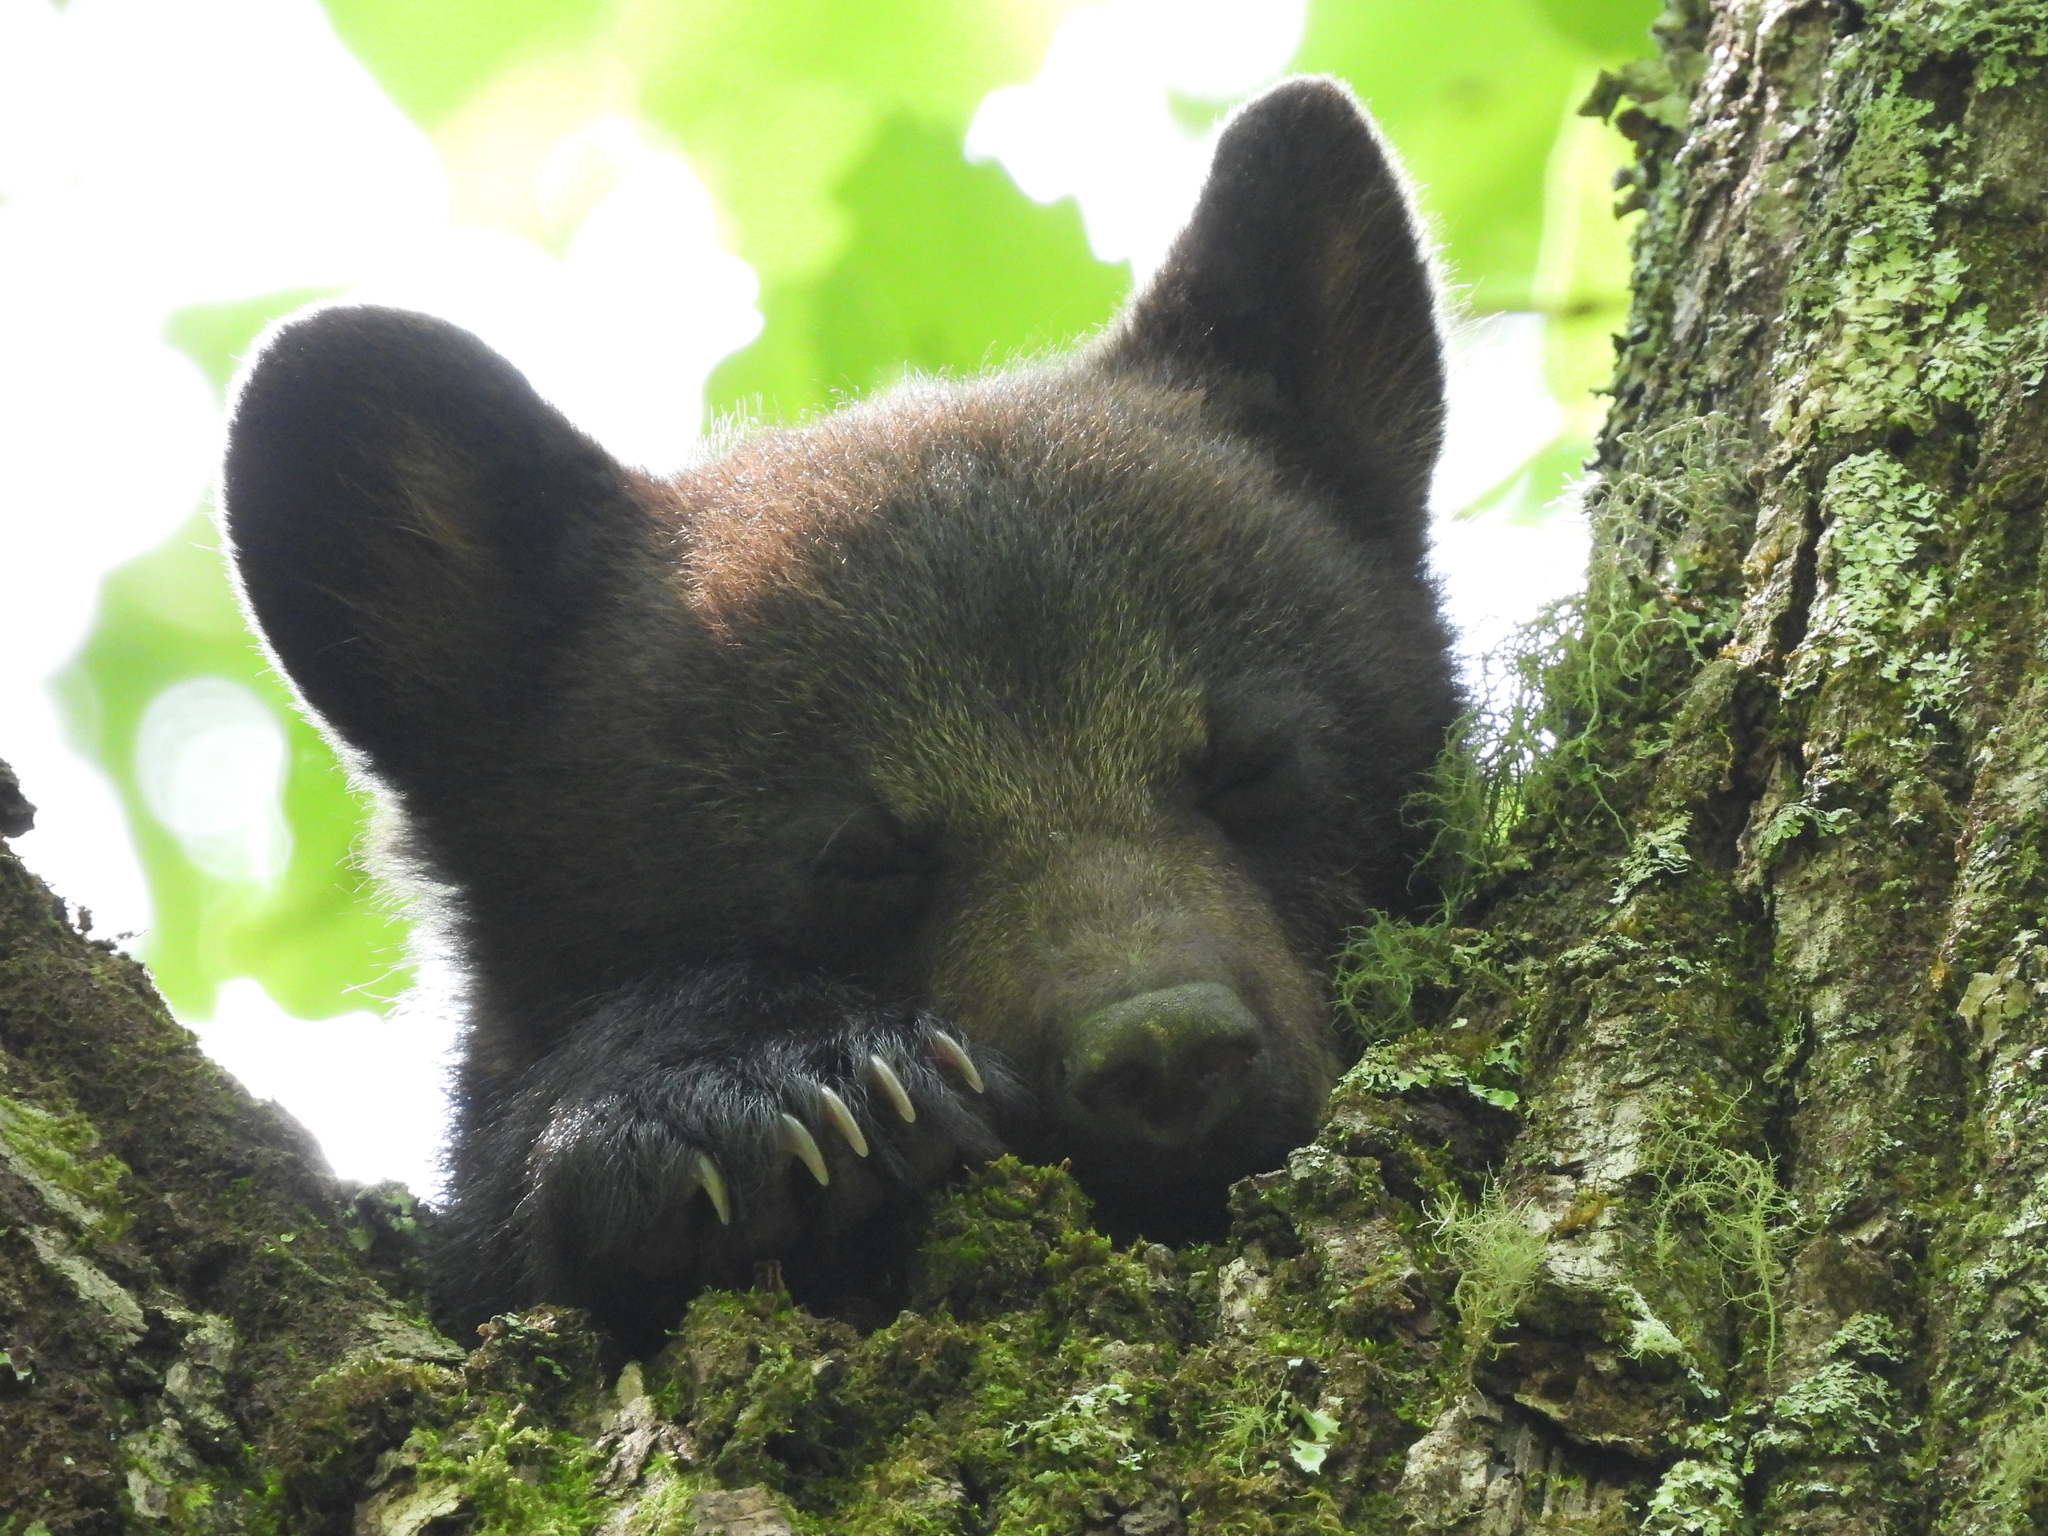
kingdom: Animalia
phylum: Chordata
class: Mammalia
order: Carnivora
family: Ursidae
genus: Ursus
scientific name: Ursus americanus
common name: American black bear
